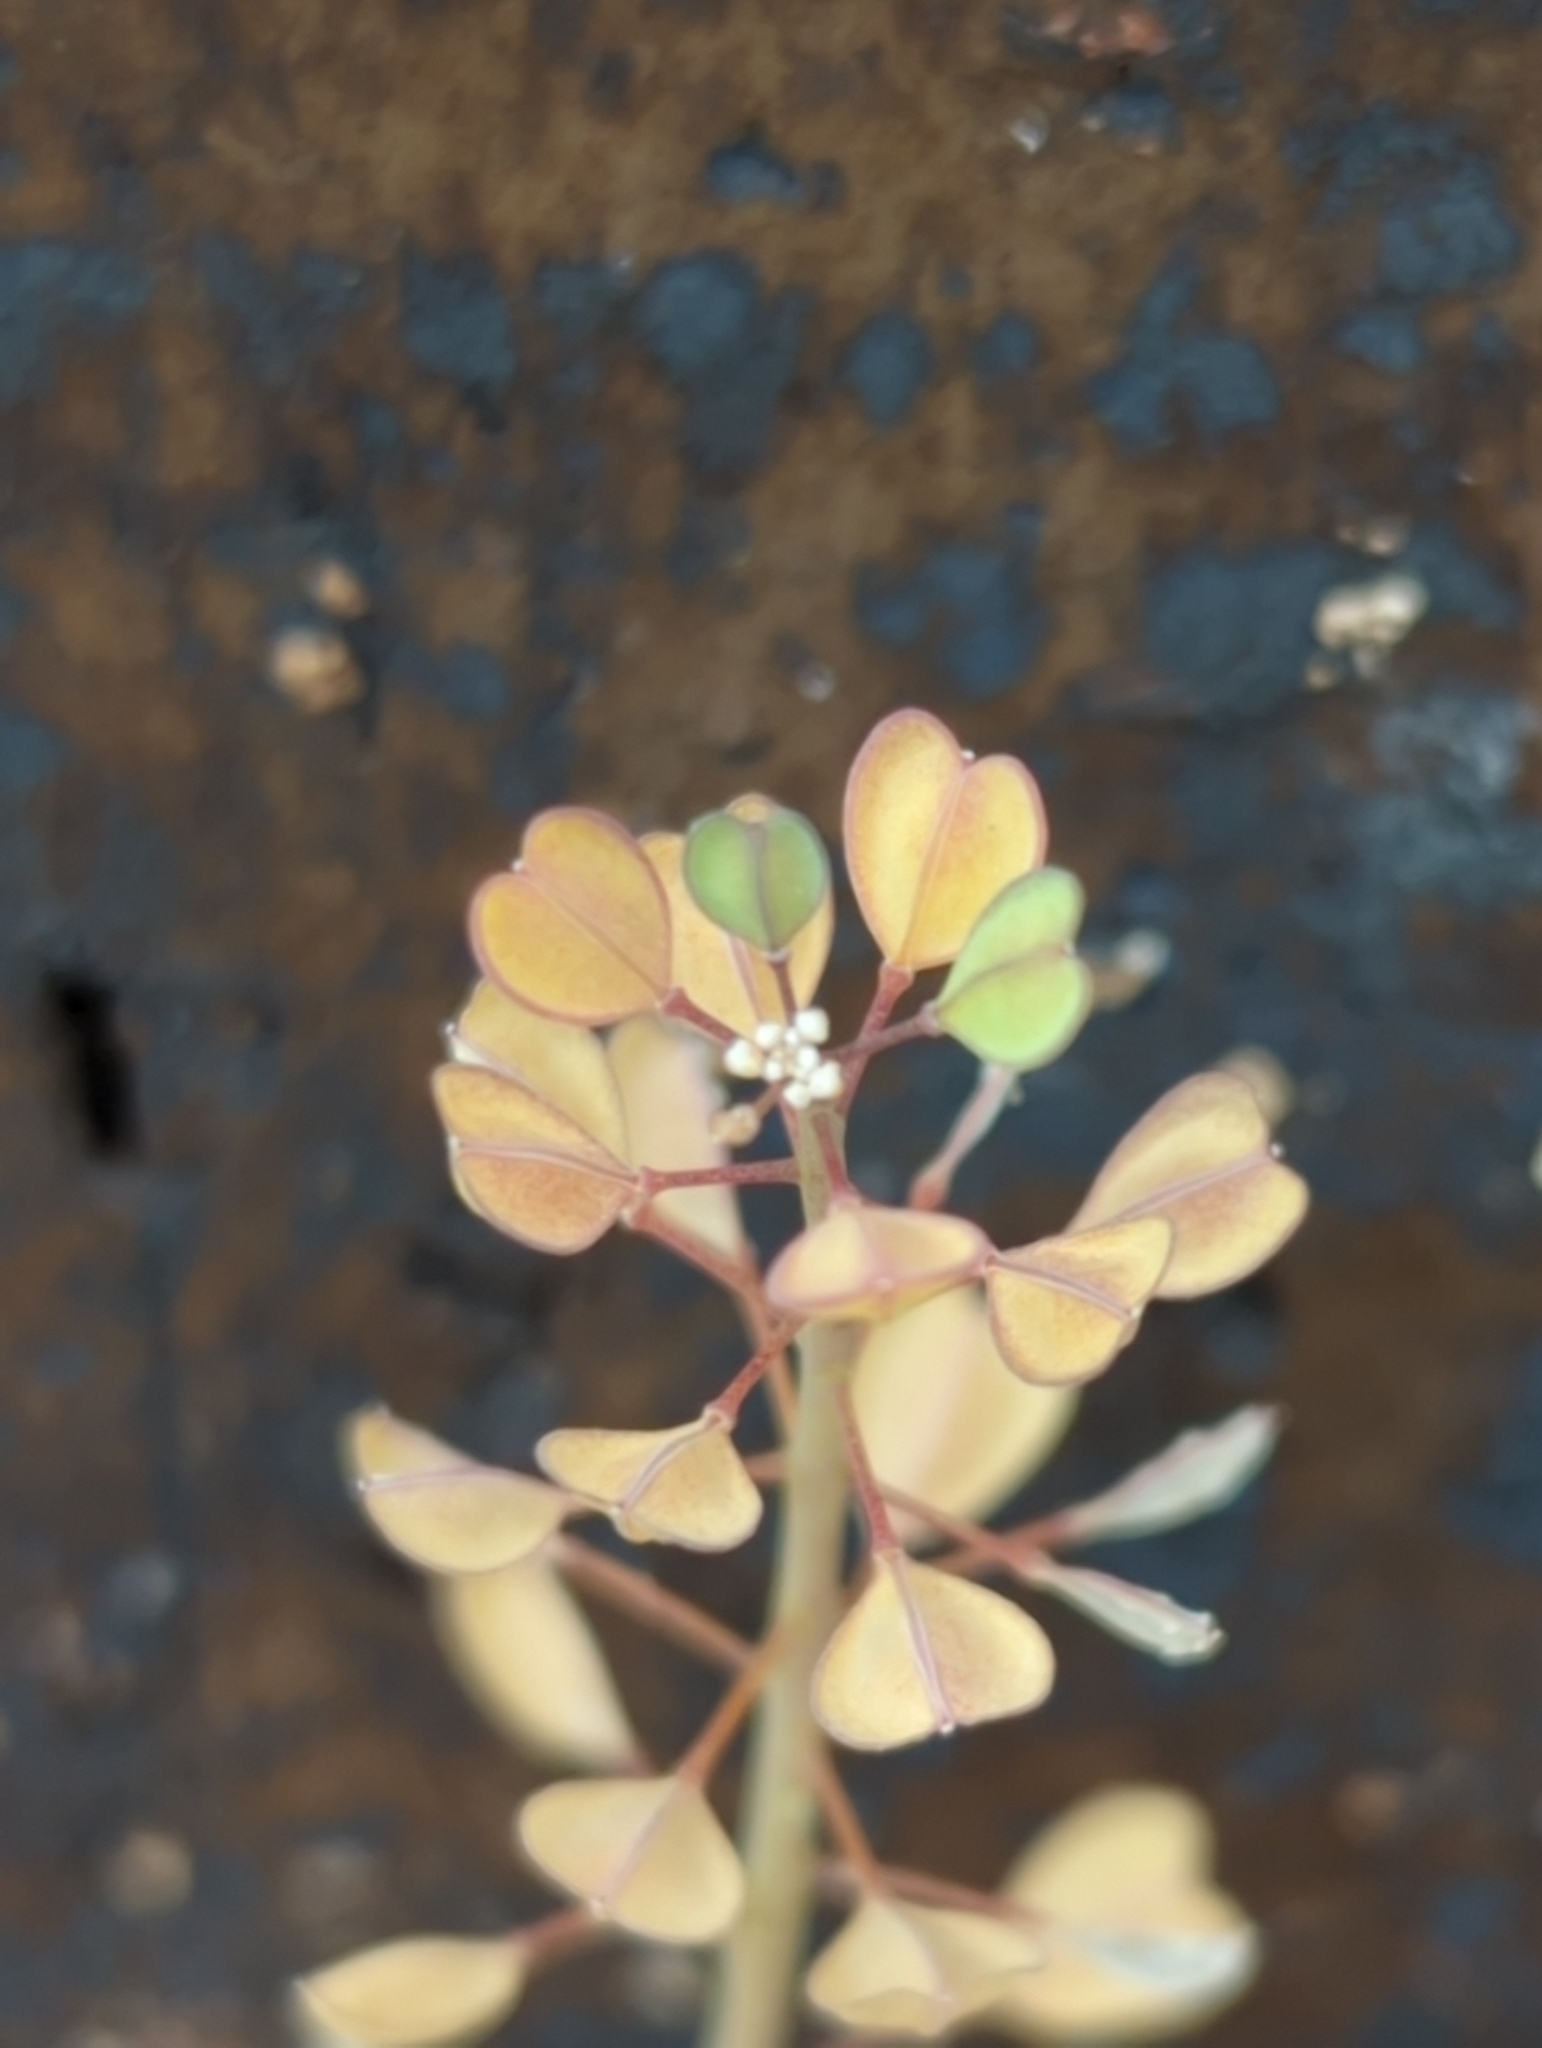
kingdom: Plantae
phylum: Tracheophyta
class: Magnoliopsida
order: Brassicales
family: Brassicaceae
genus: Noccaea
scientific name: Noccaea perfoliata
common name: Perfoliate pennycress
